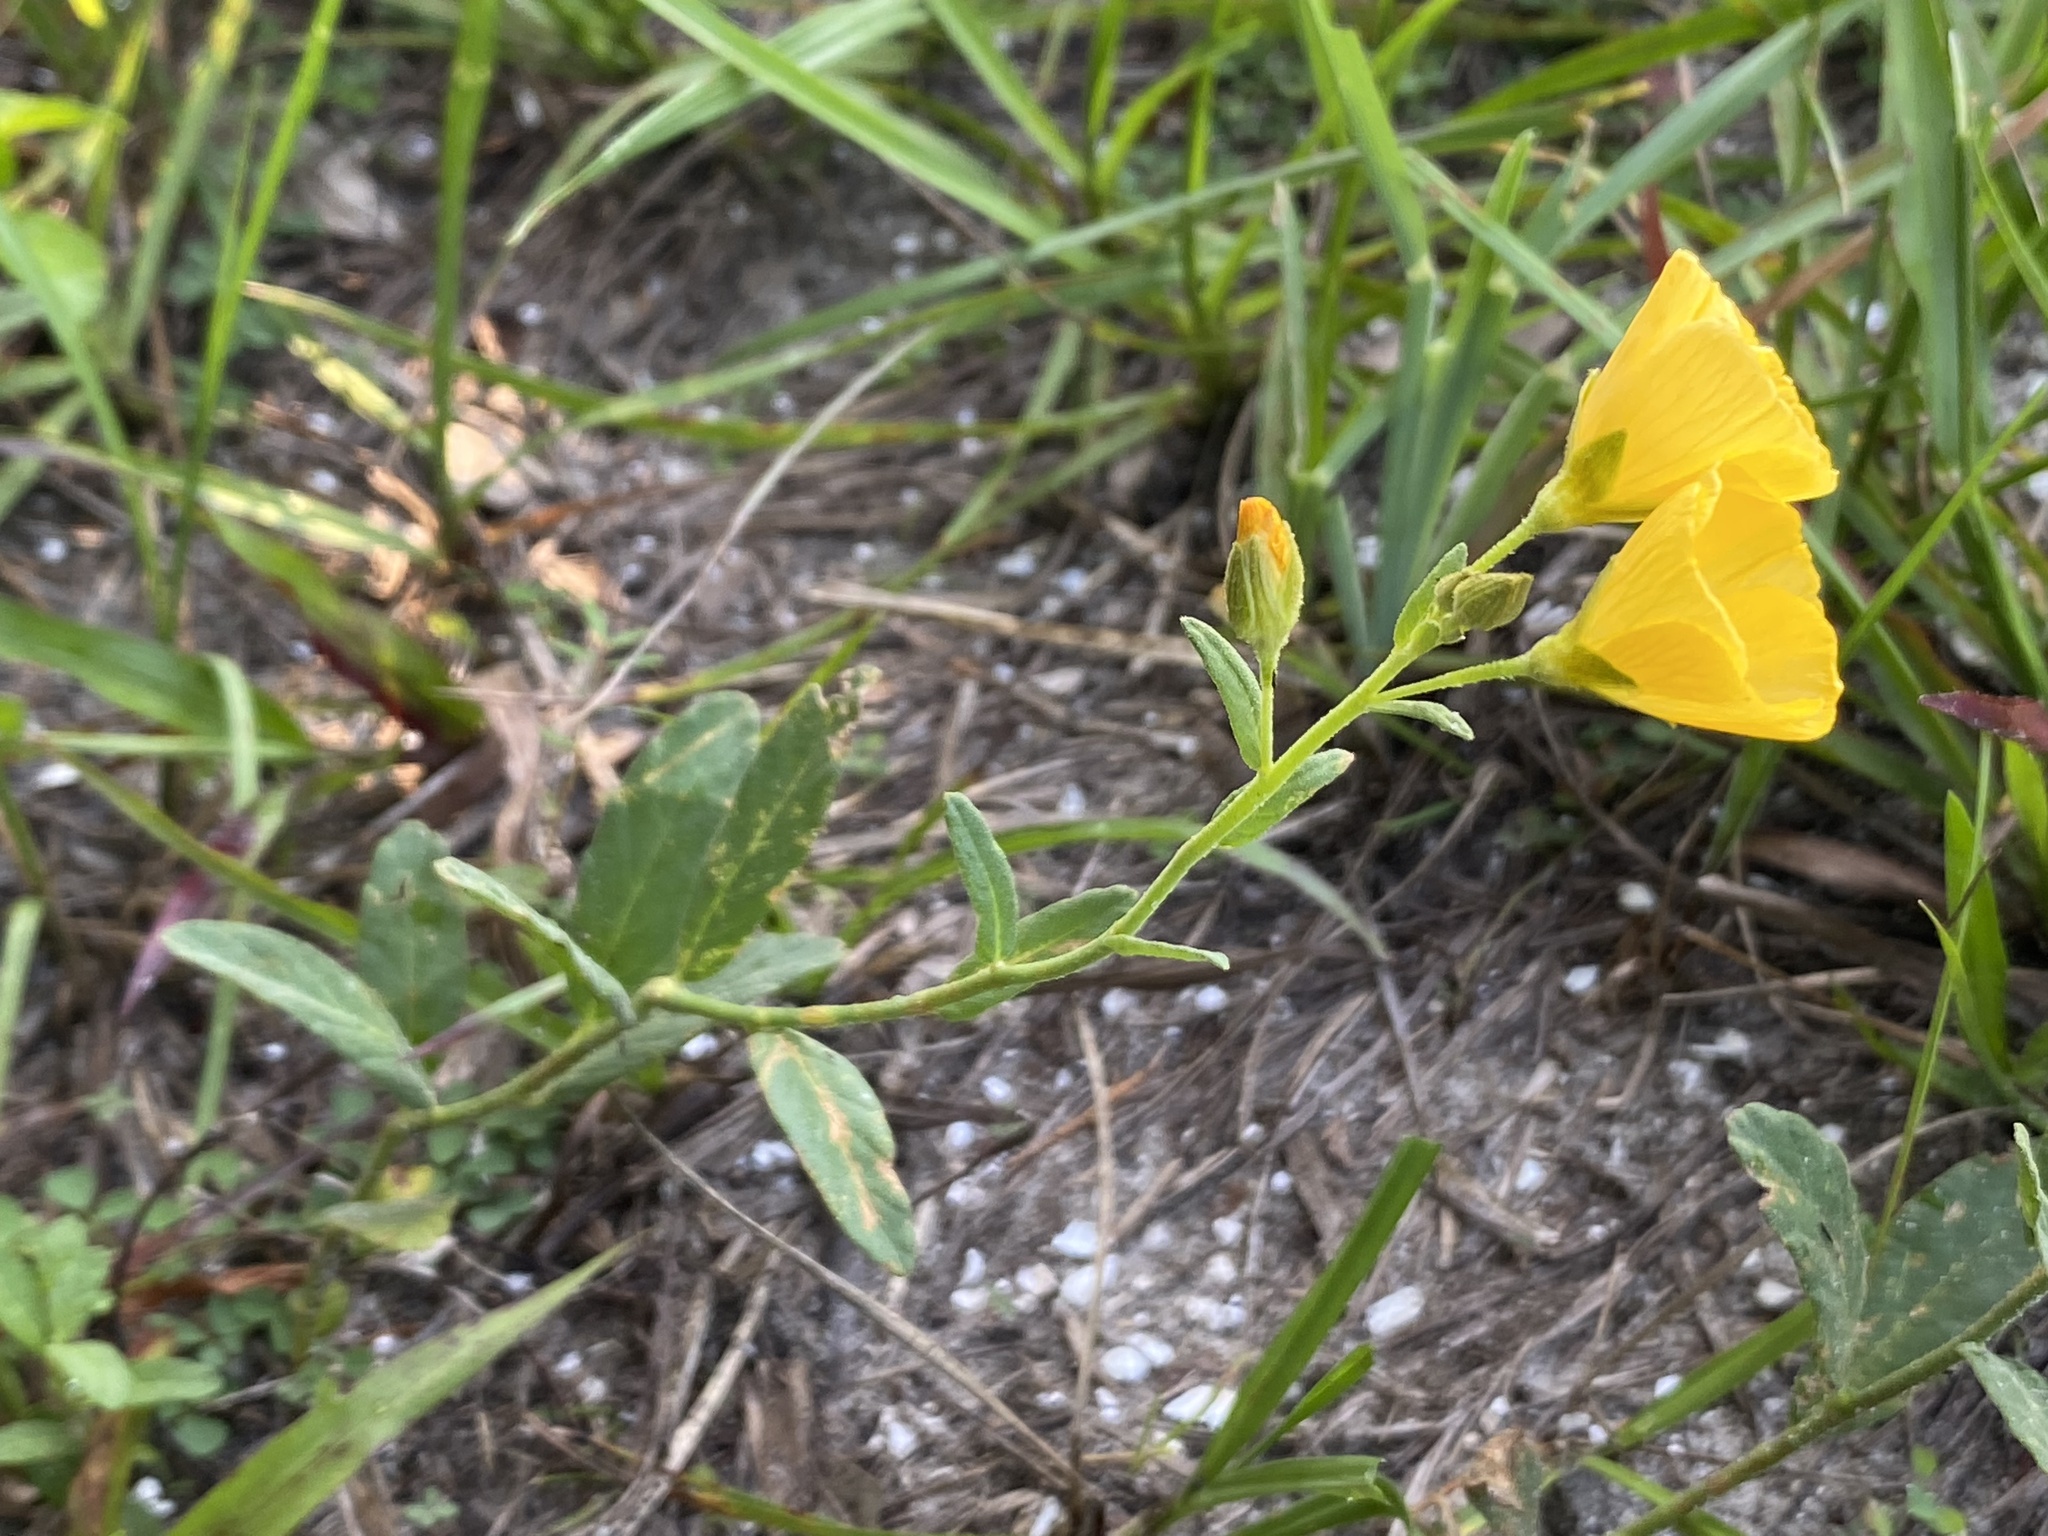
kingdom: Plantae
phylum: Tracheophyta
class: Magnoliopsida
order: Malpighiales
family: Turneraceae
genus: Piriqueta
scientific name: Piriqueta cistoides
